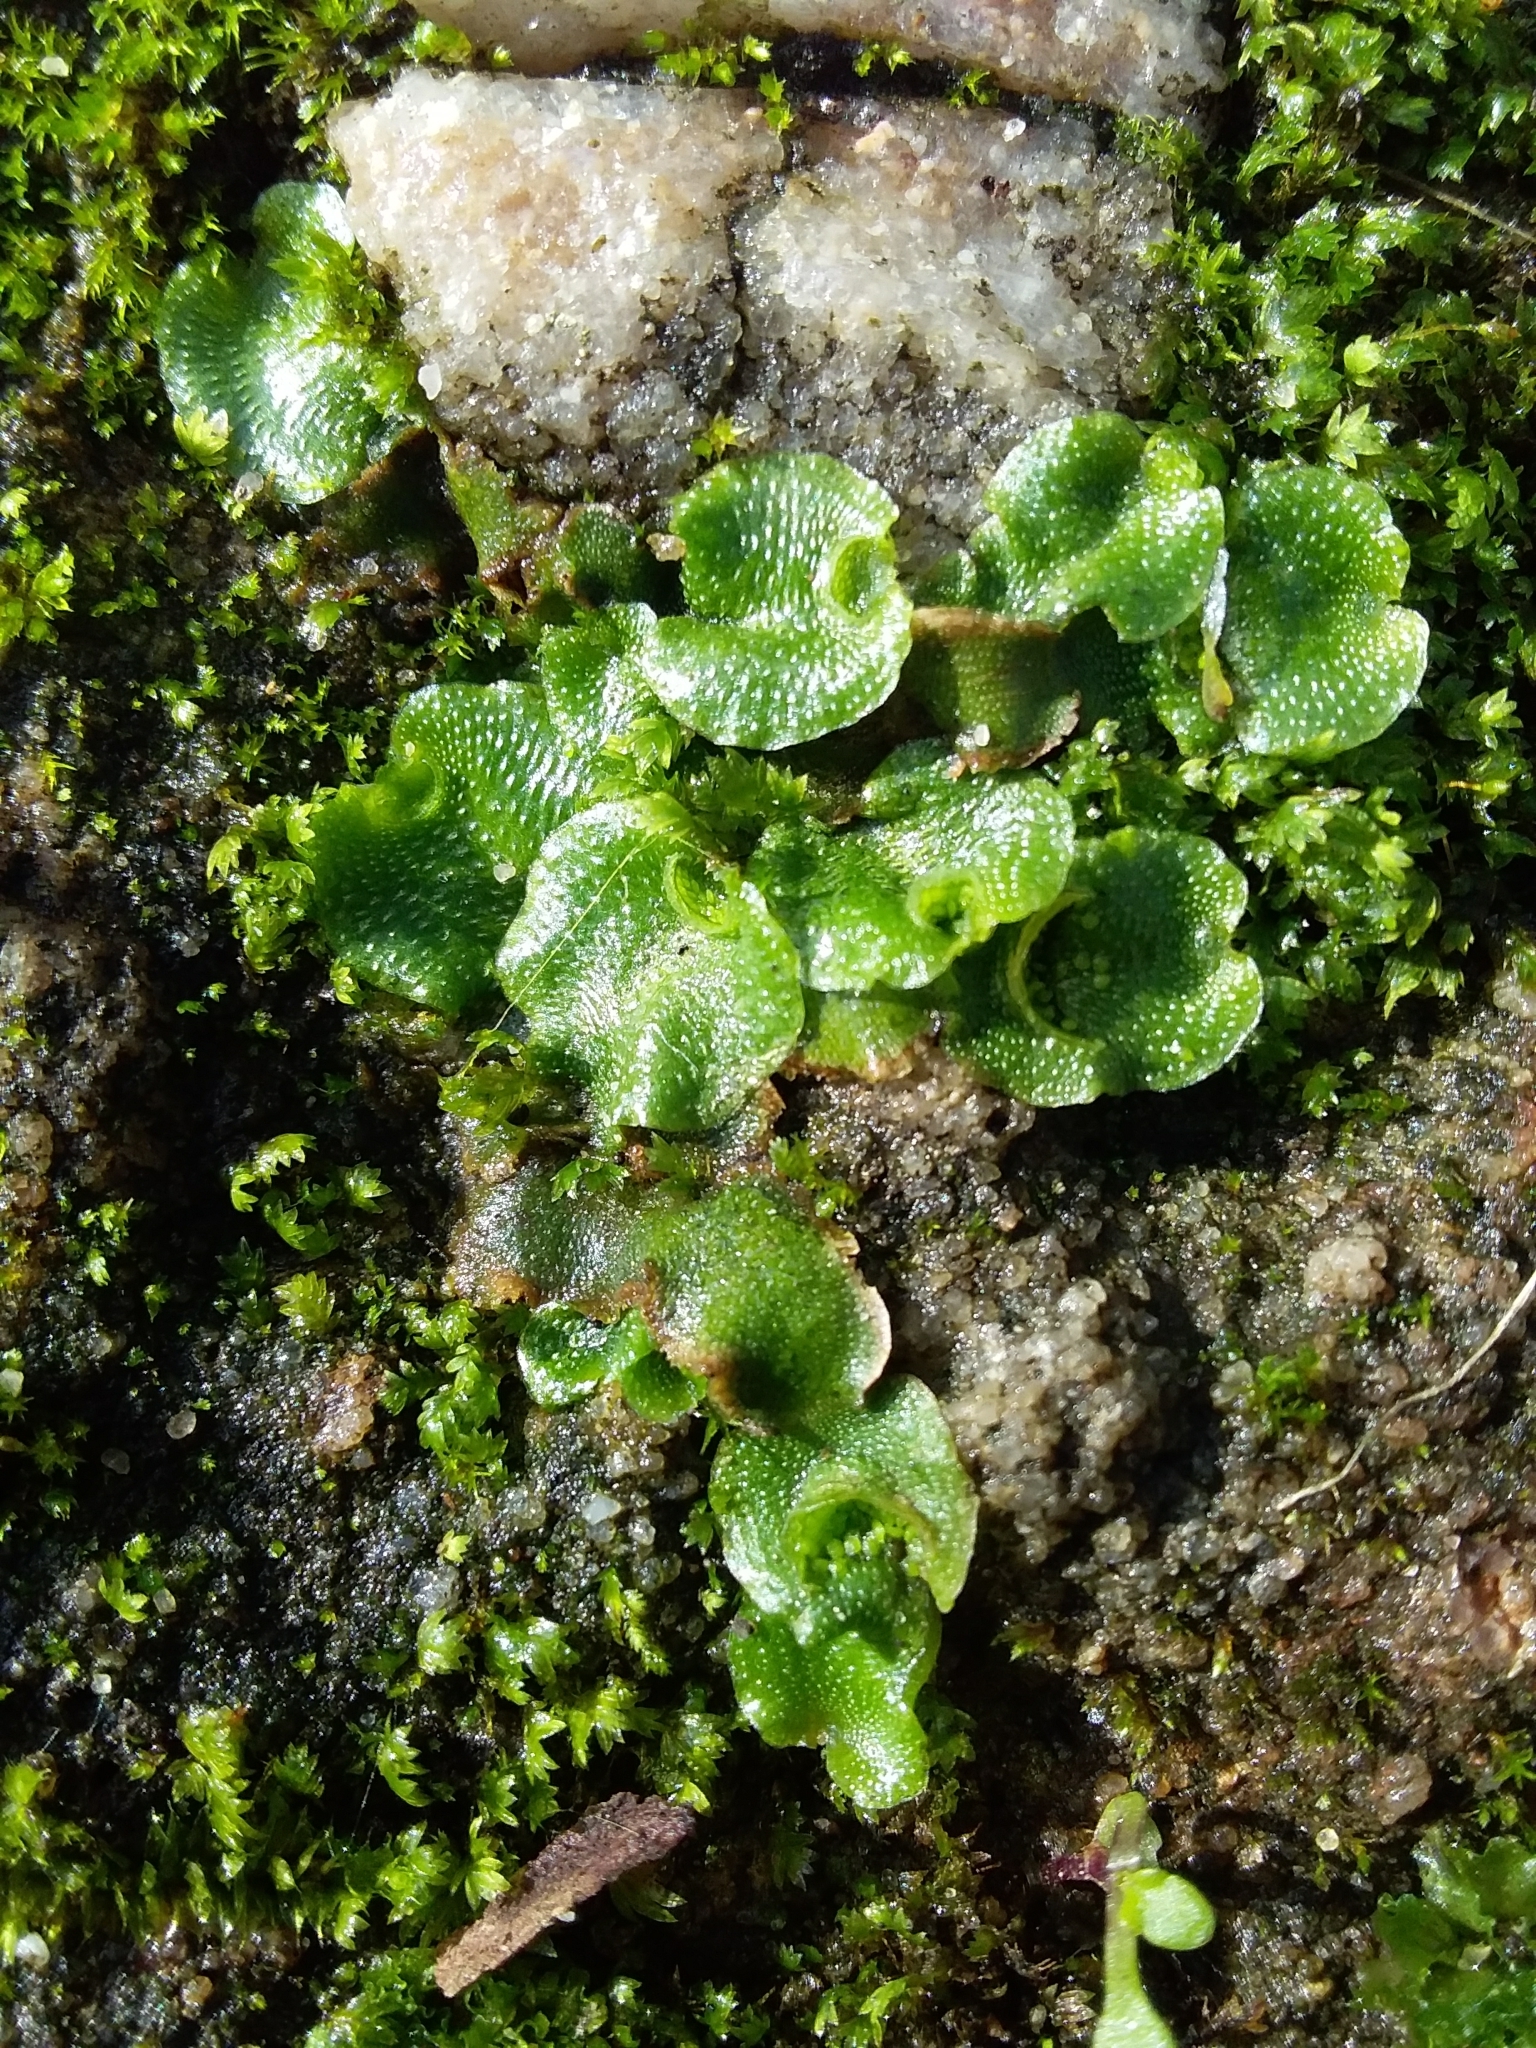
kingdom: Plantae
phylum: Marchantiophyta
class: Marchantiopsida
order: Lunulariales
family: Lunulariaceae
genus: Lunularia
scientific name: Lunularia cruciata
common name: Crescent-cup liverwort
